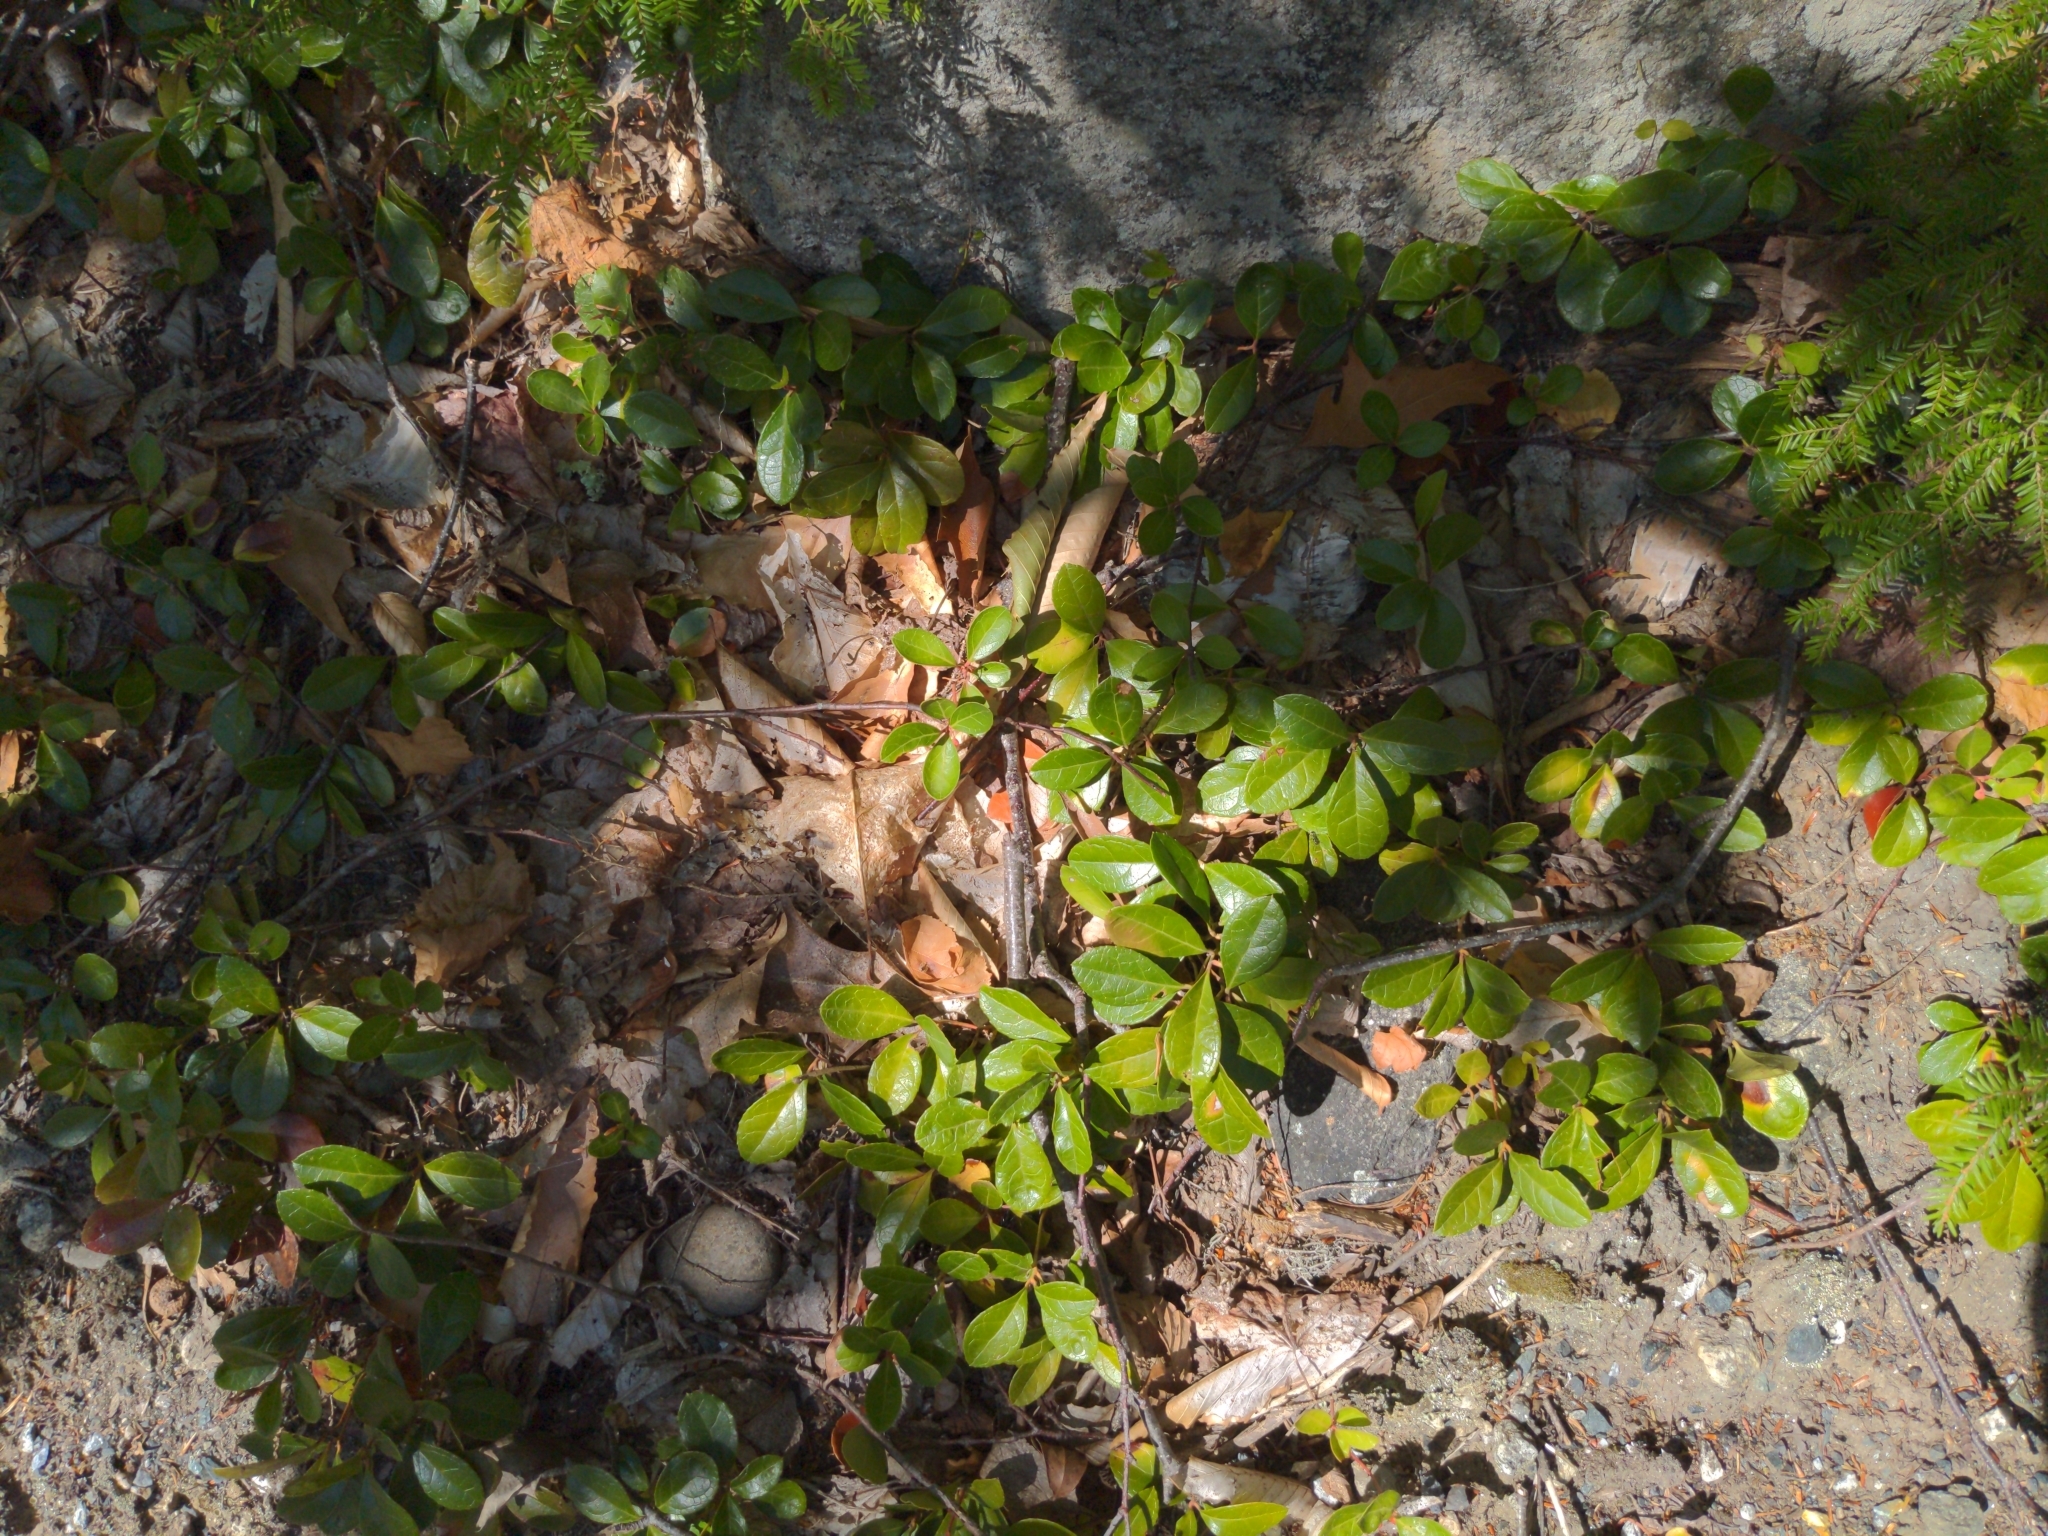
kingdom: Plantae
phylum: Tracheophyta
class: Magnoliopsida
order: Ericales
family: Ericaceae
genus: Gaultheria
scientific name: Gaultheria procumbens
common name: Checkerberry
